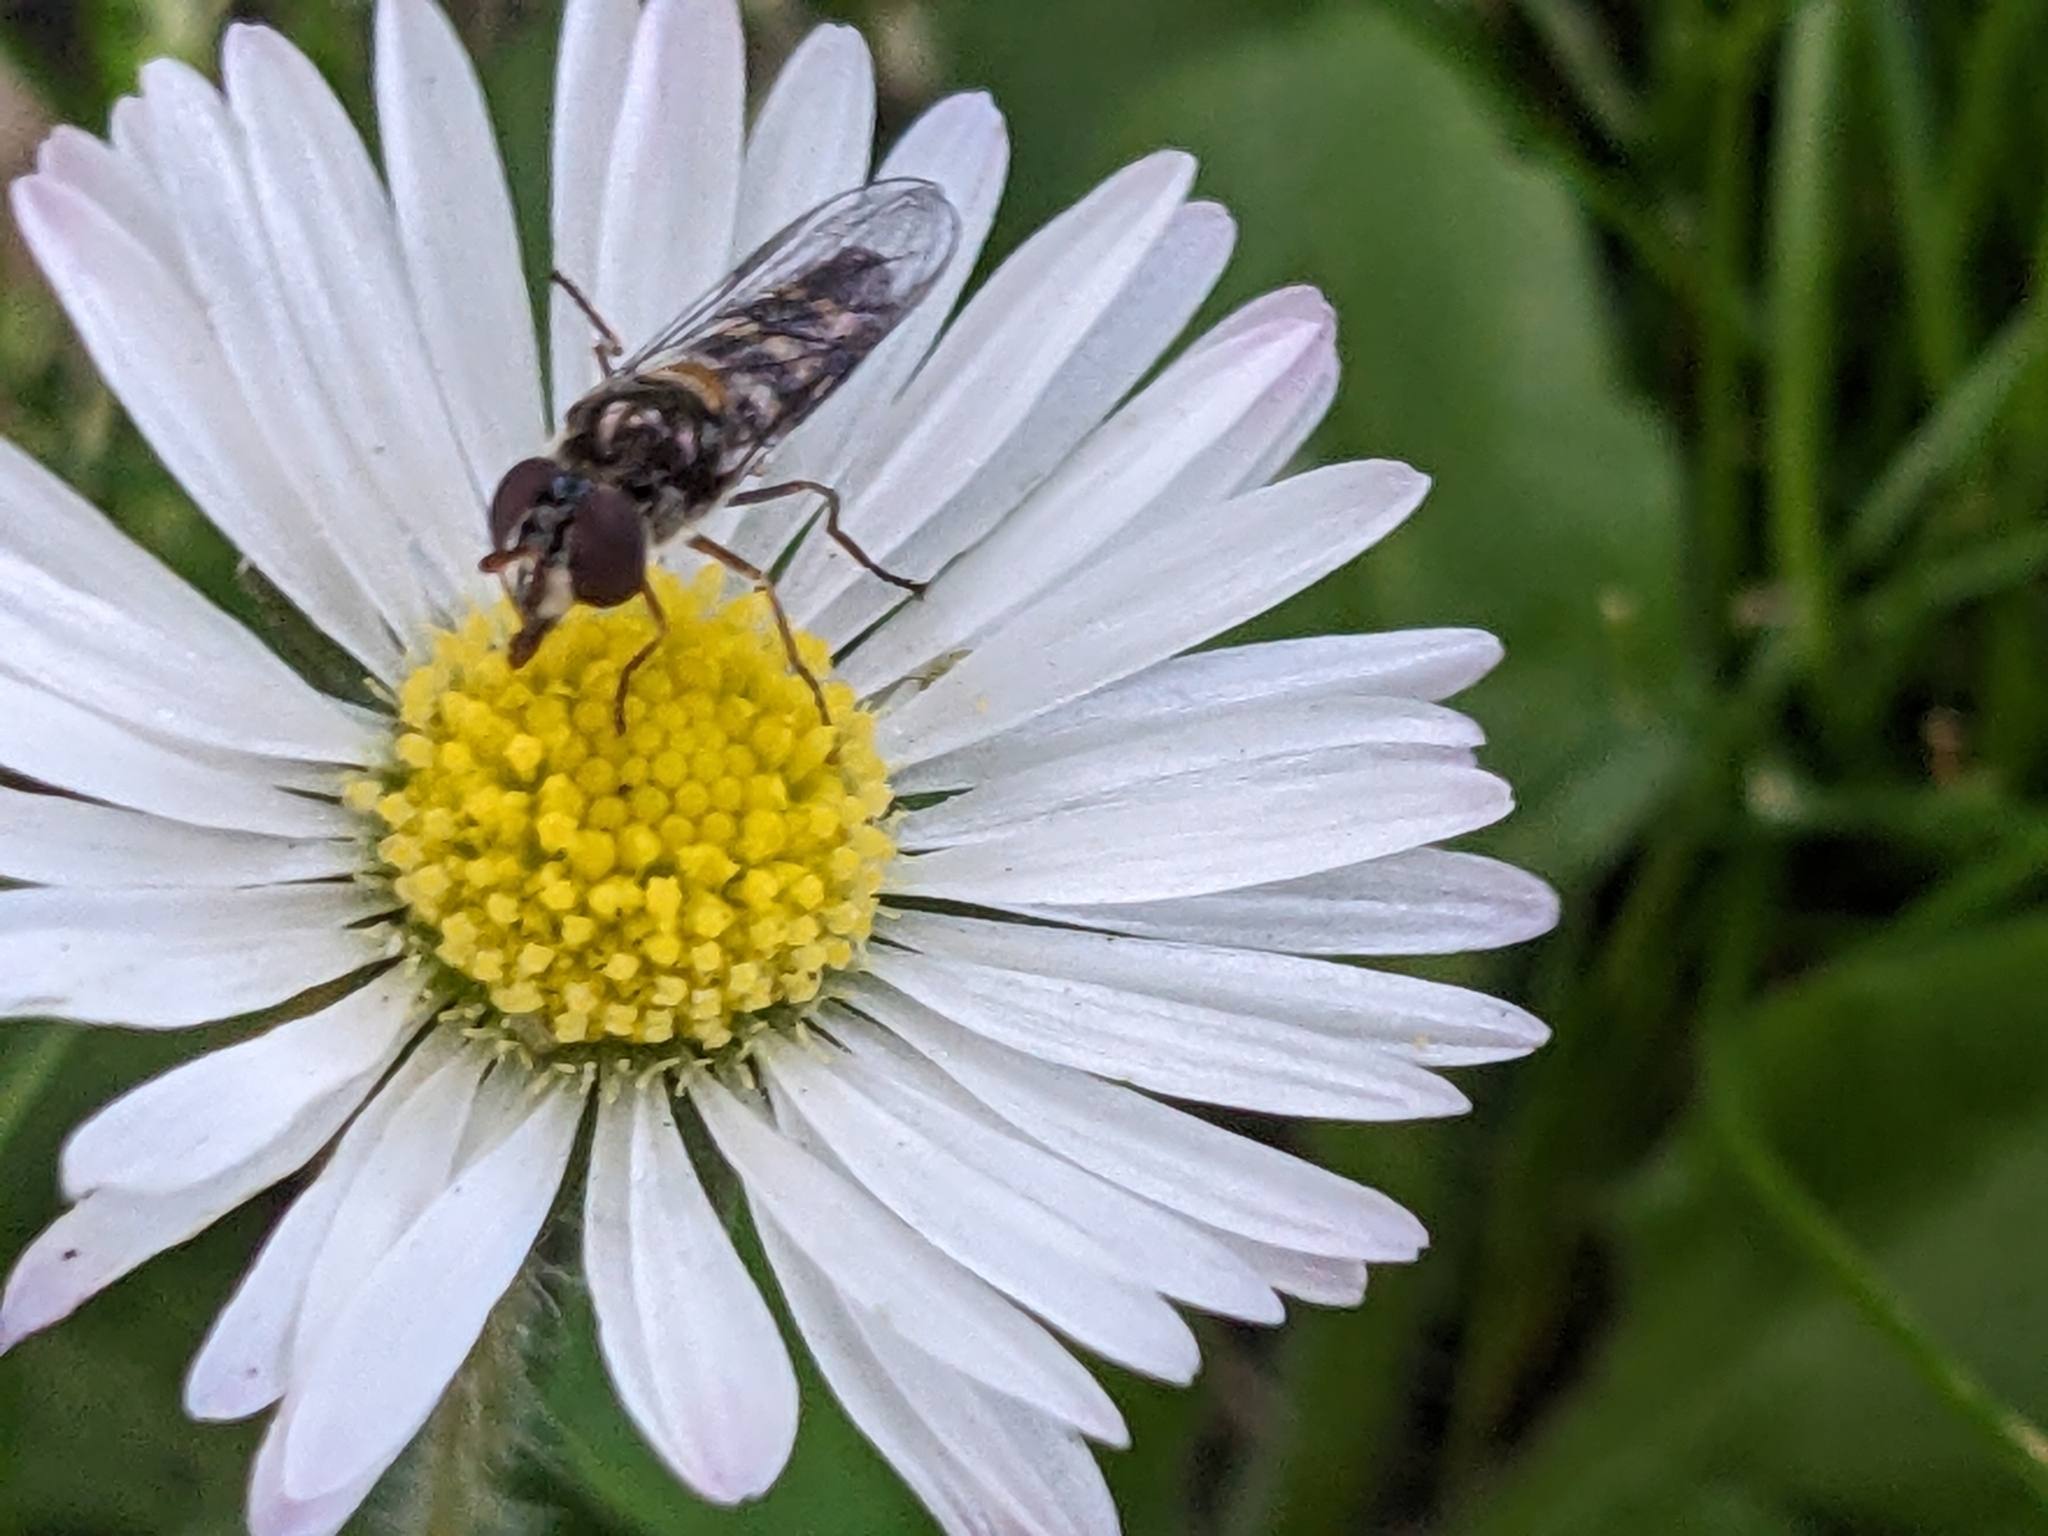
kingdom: Plantae
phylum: Tracheophyta
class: Magnoliopsida
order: Asterales
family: Asteraceae
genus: Bellis
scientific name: Bellis perennis
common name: Lawndaisy
